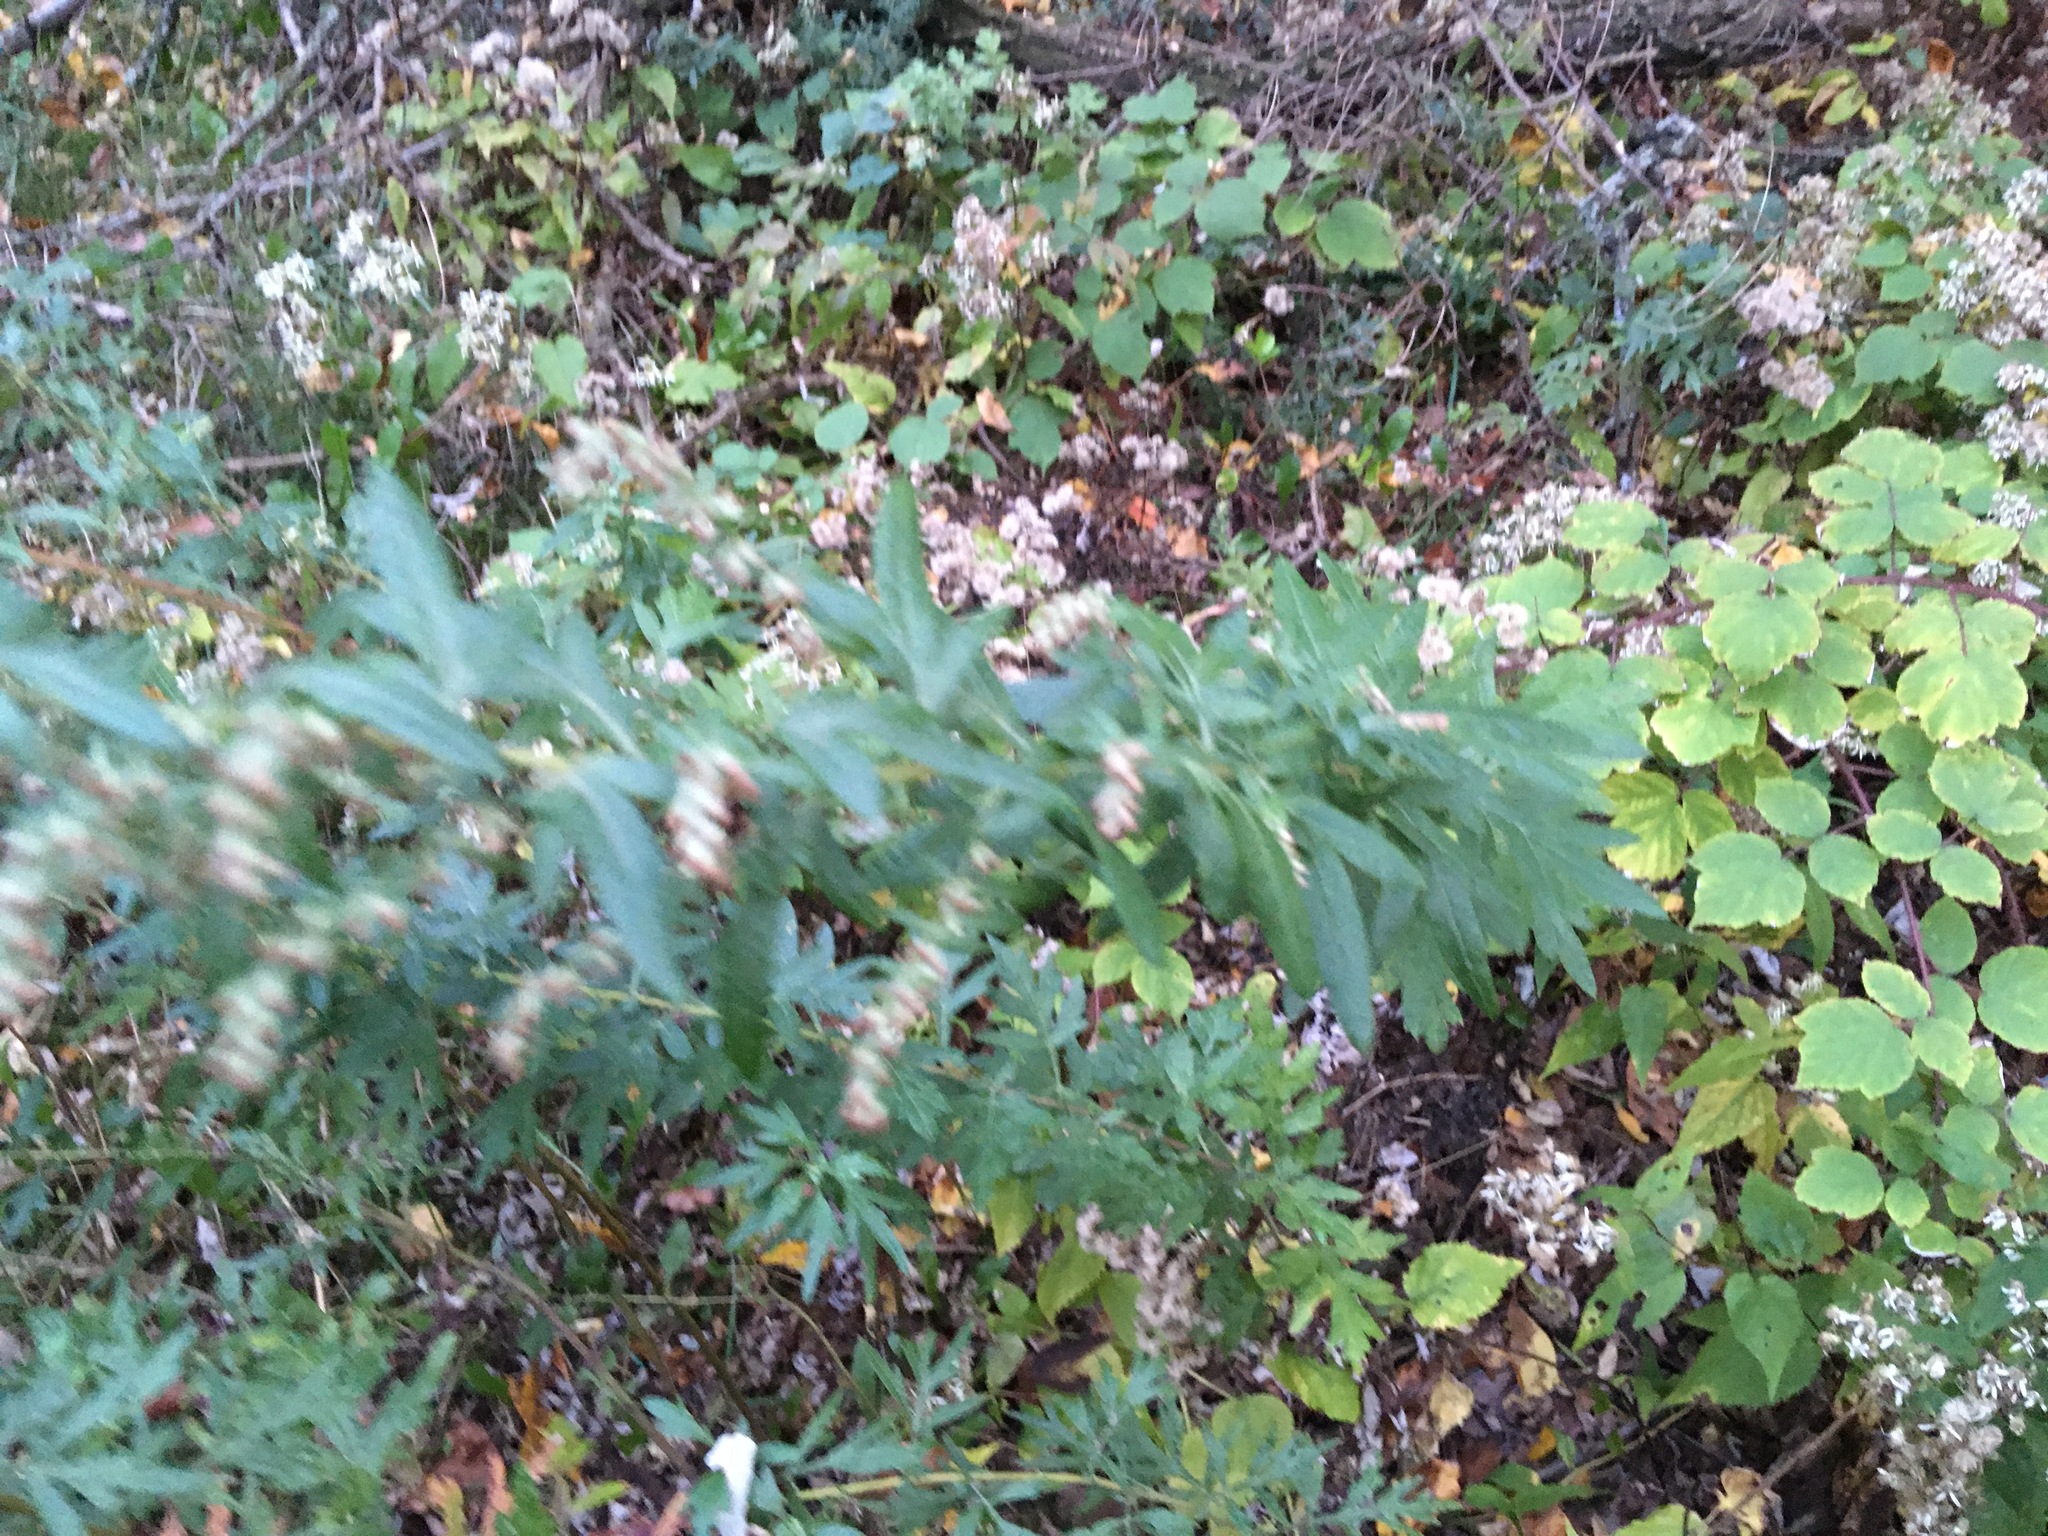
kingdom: Plantae
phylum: Tracheophyta
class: Magnoliopsida
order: Asterales
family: Asteraceae
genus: Artemisia
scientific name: Artemisia vulgaris
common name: Mugwort
